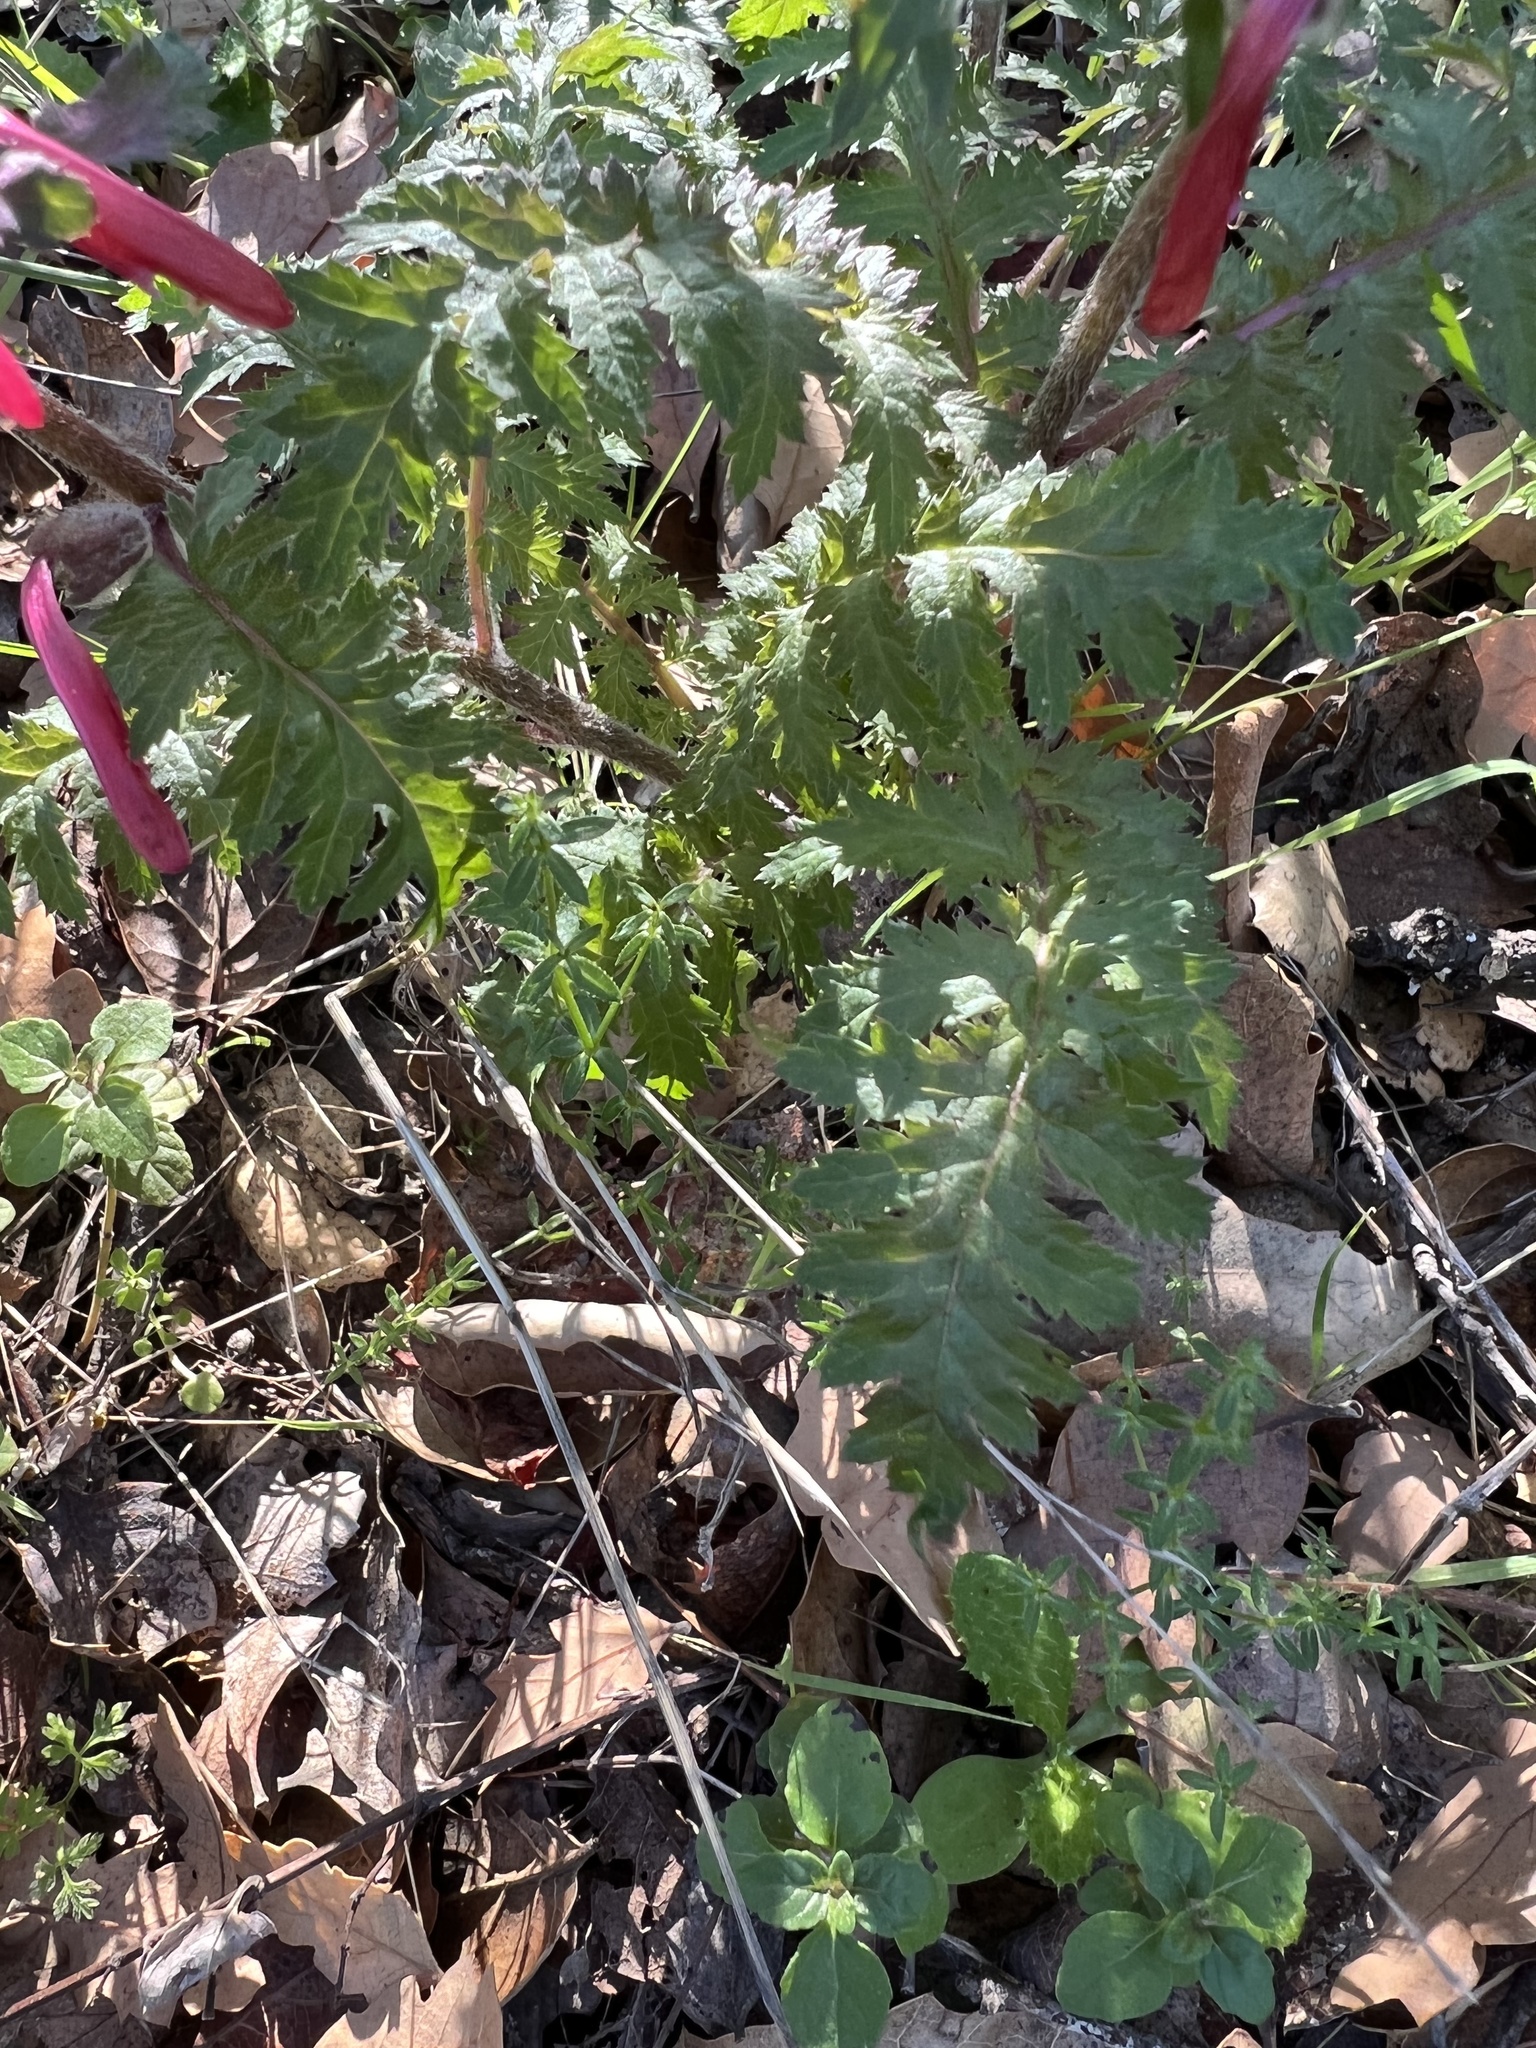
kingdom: Plantae
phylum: Tracheophyta
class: Magnoliopsida
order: Lamiales
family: Orobanchaceae
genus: Pedicularis
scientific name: Pedicularis densiflora
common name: Indian warrior
